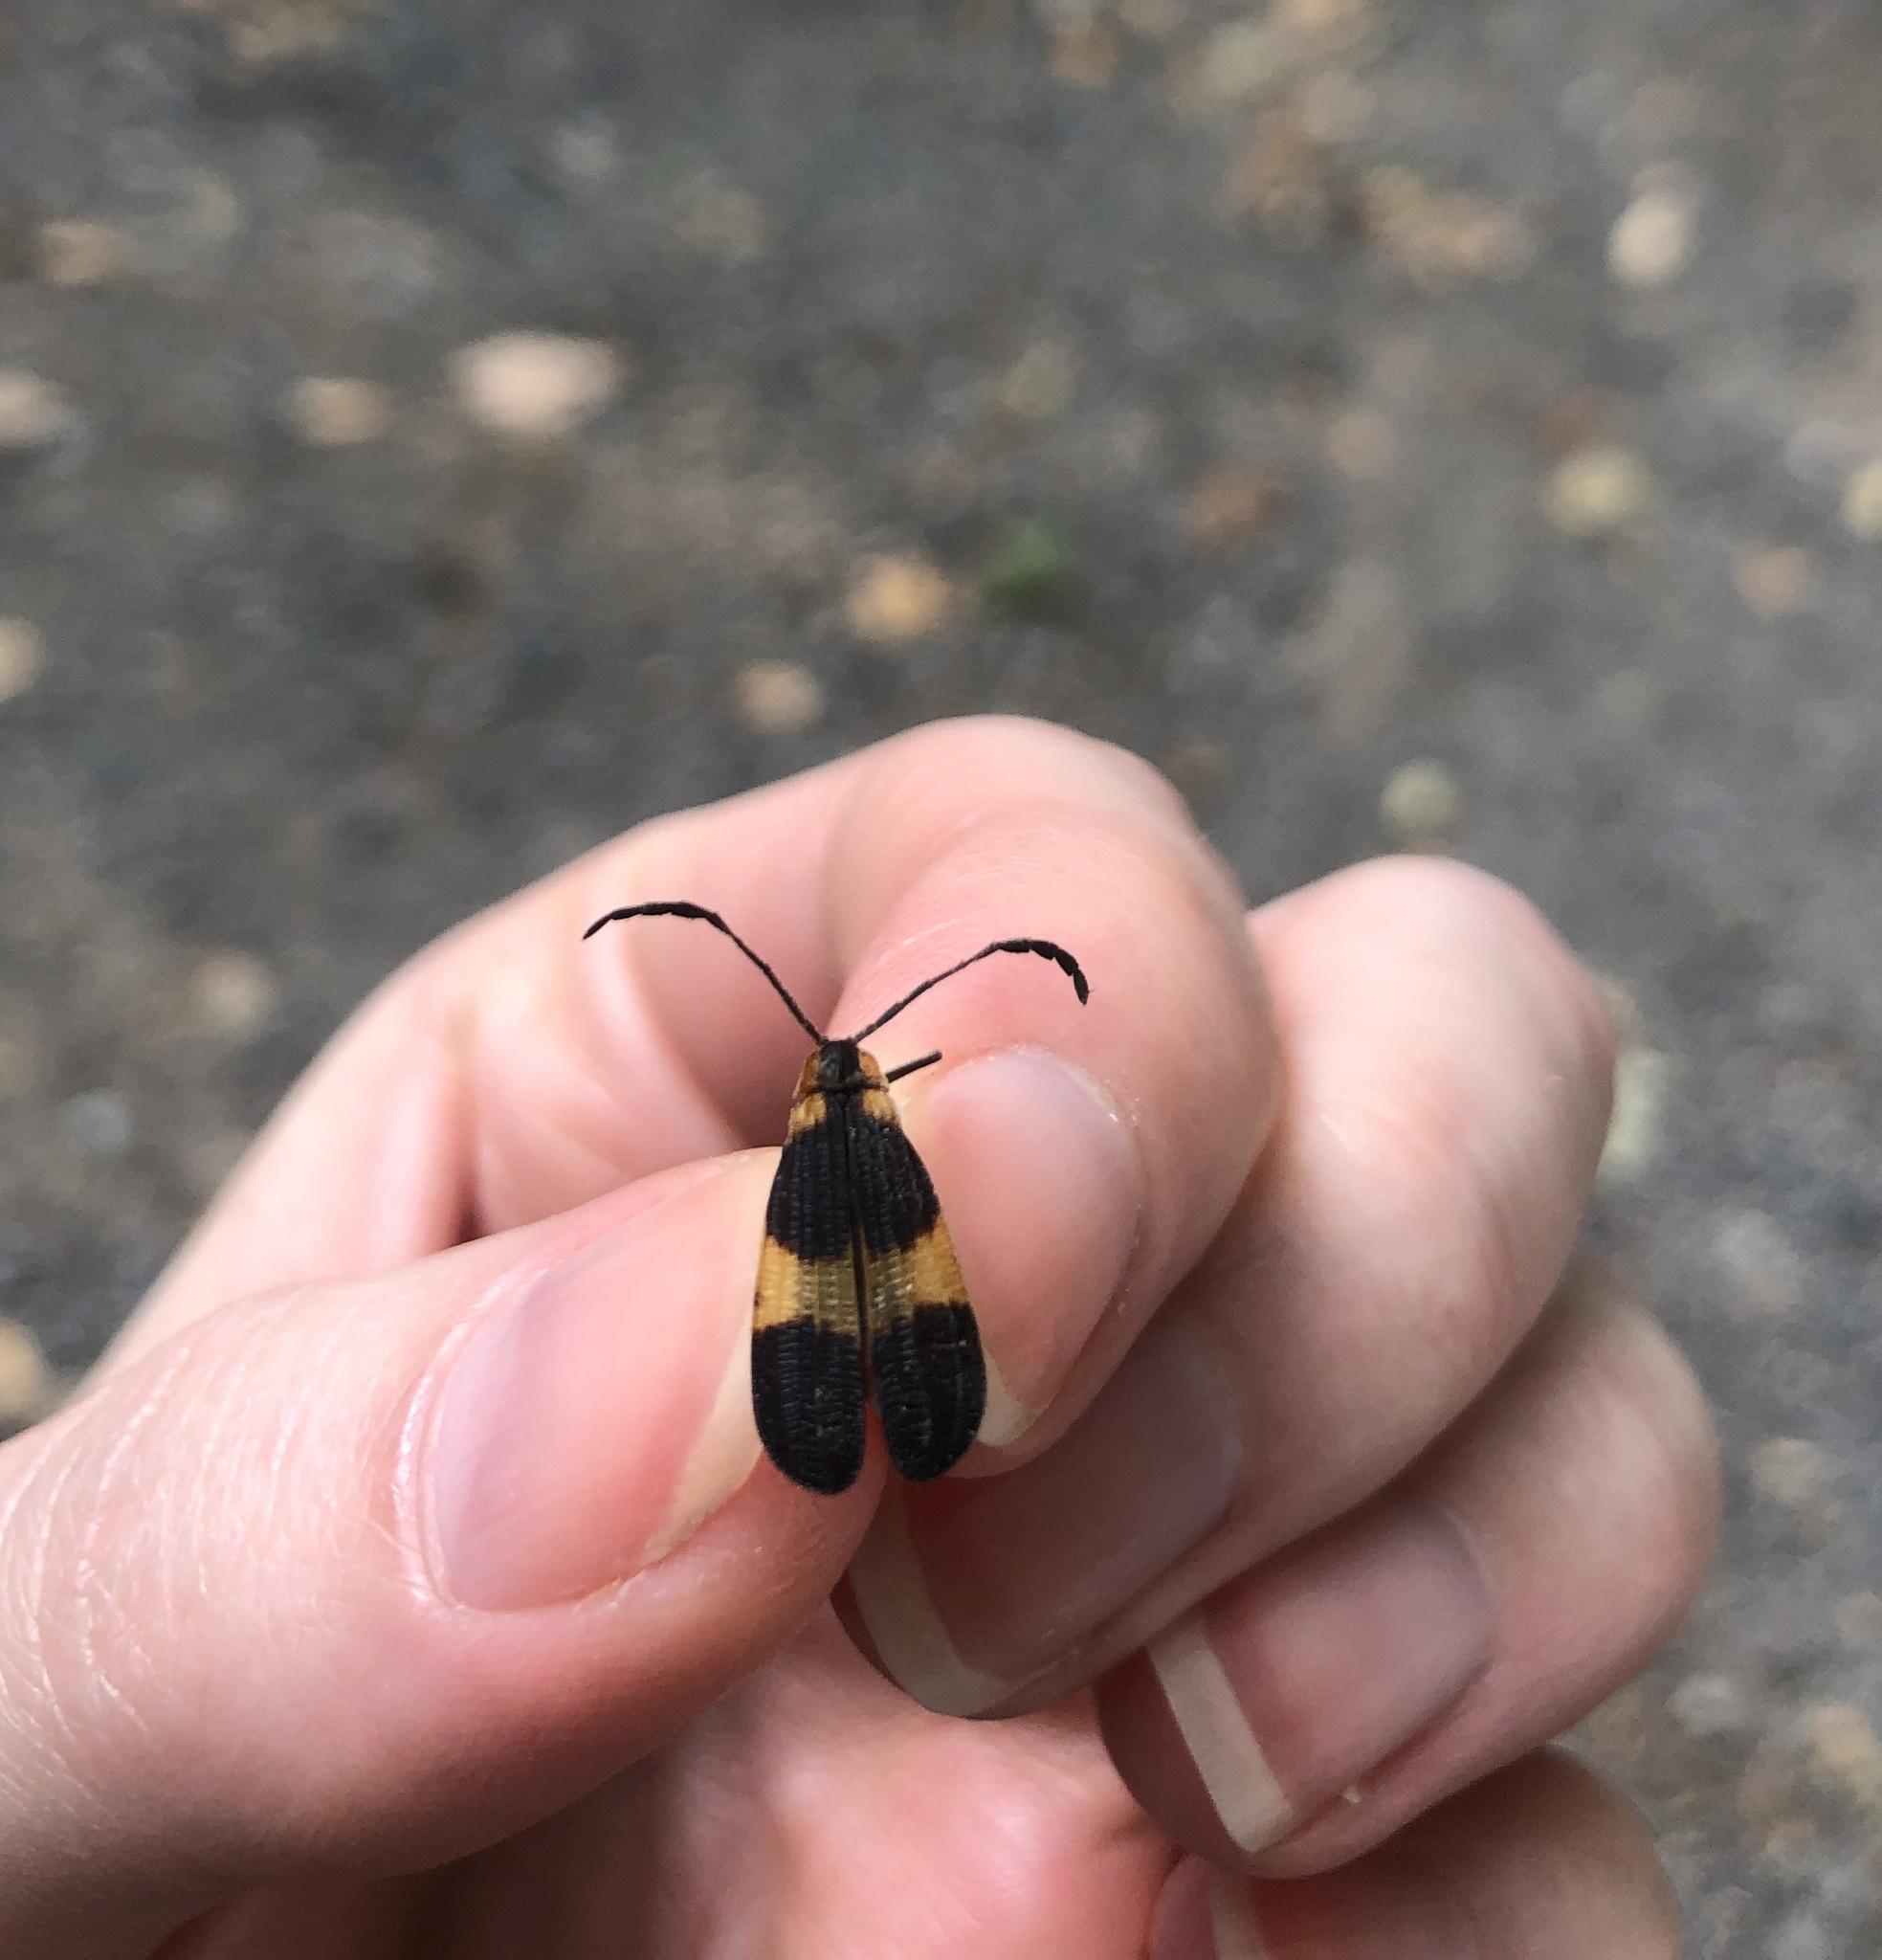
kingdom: Animalia
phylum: Arthropoda
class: Insecta
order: Coleoptera
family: Lycidae
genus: Calopteron
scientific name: Calopteron reticulatum
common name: Banded net-winged beetle
